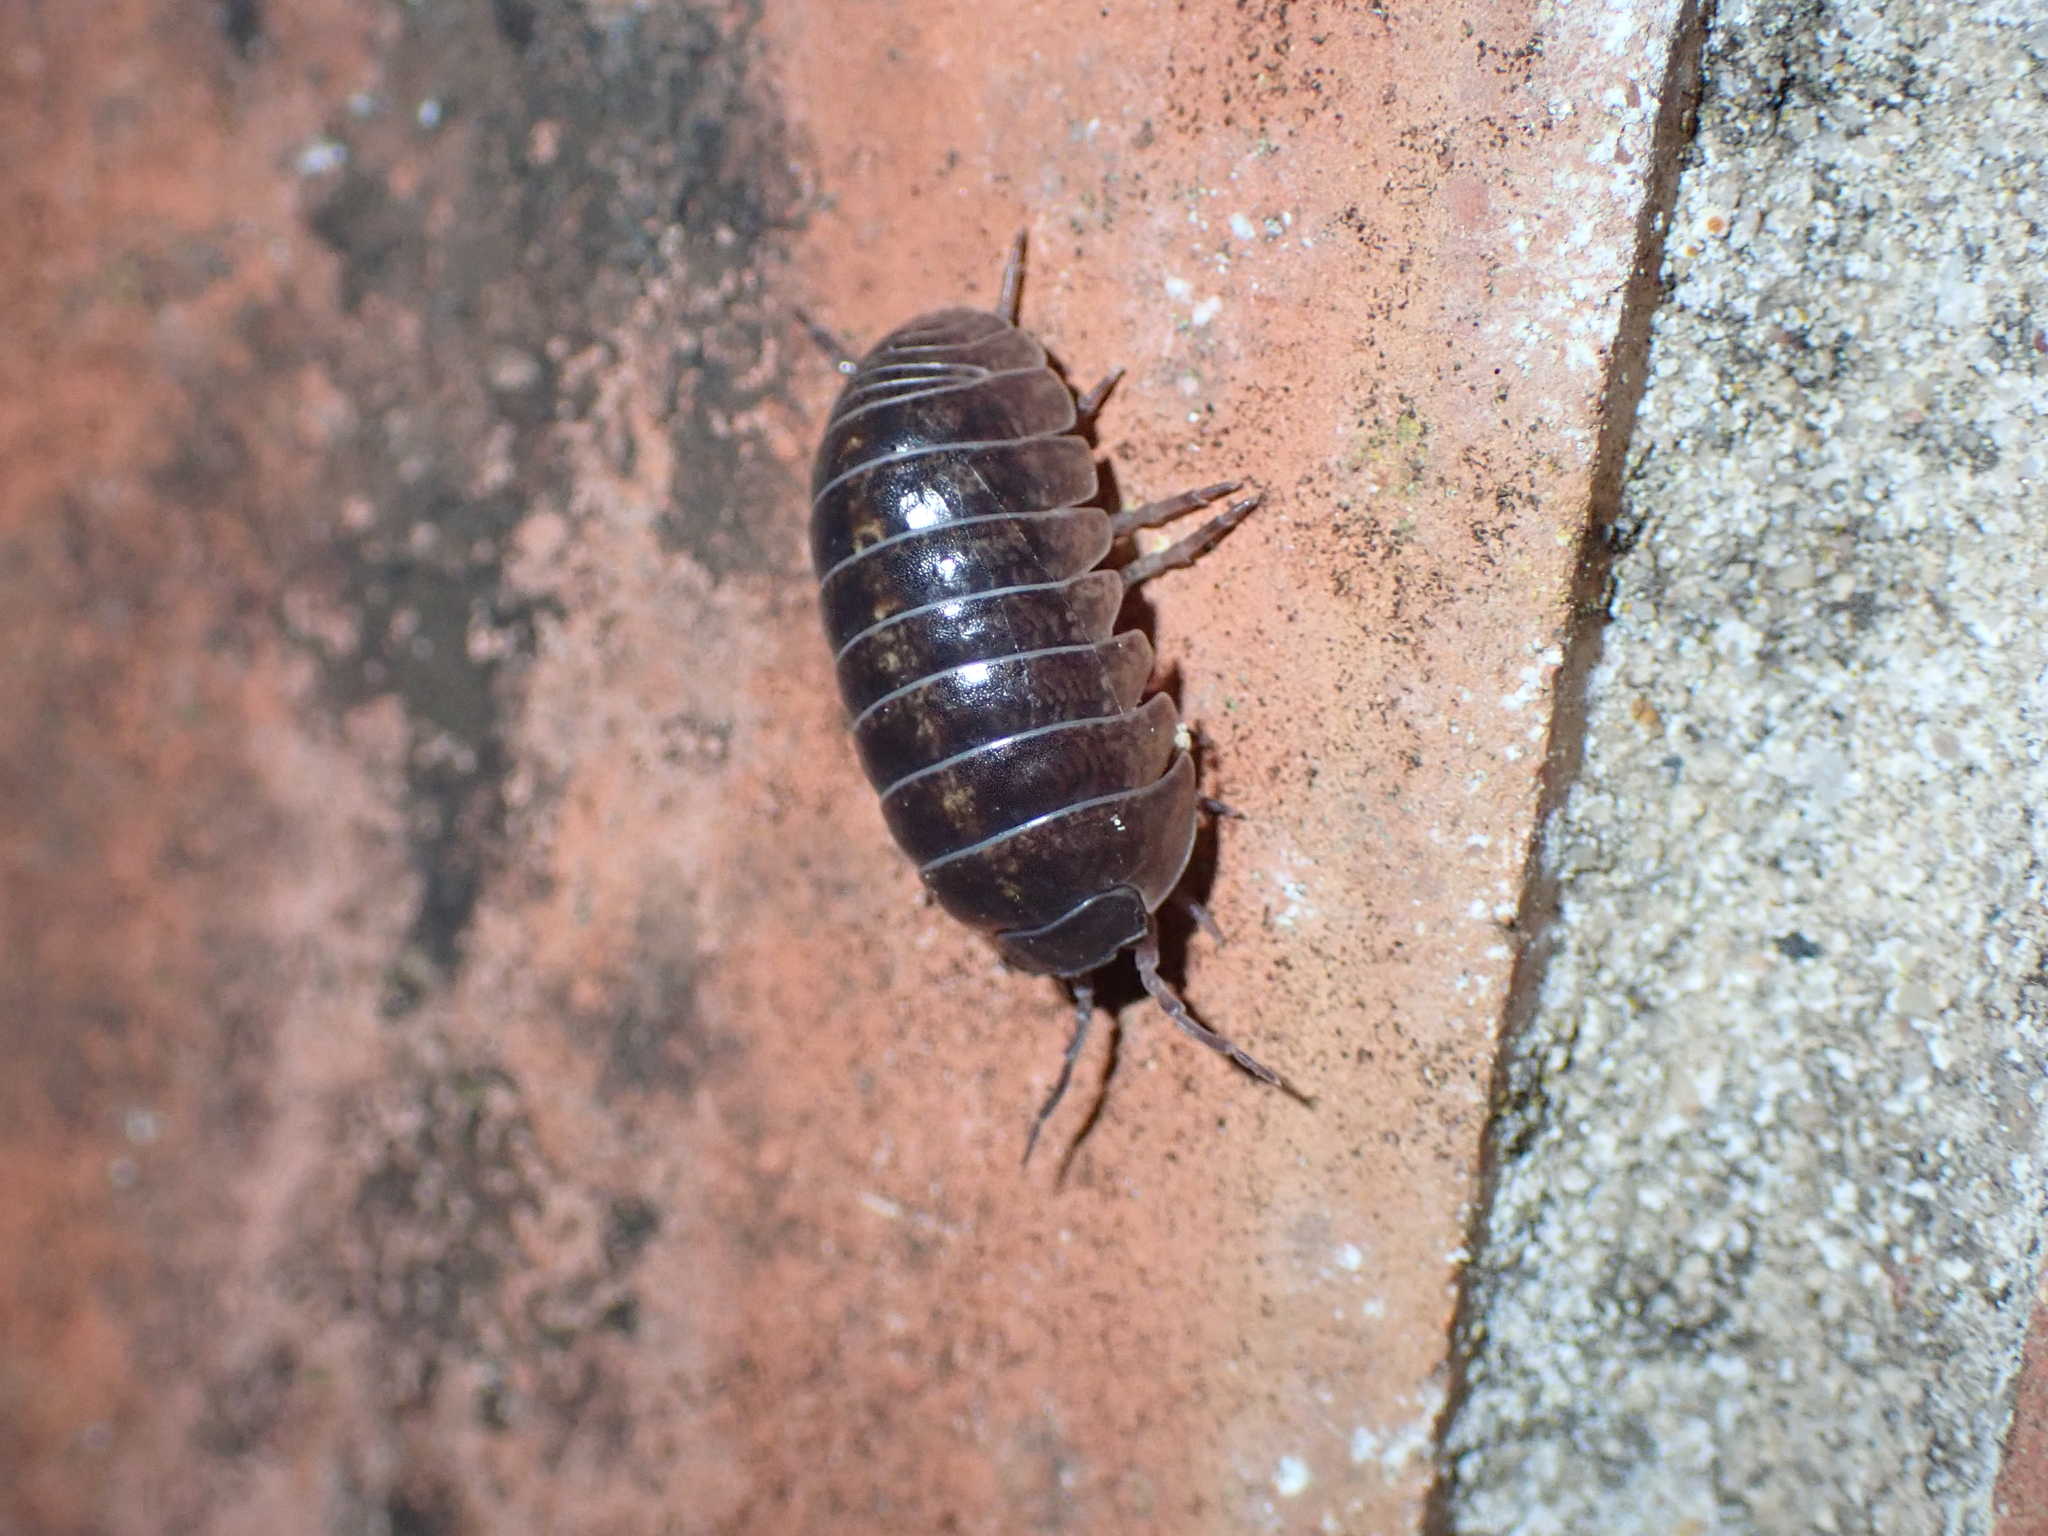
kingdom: Animalia
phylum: Arthropoda
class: Malacostraca
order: Isopoda
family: Armadillidiidae
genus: Armadillidium
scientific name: Armadillidium vulgare
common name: Common pill woodlouse
